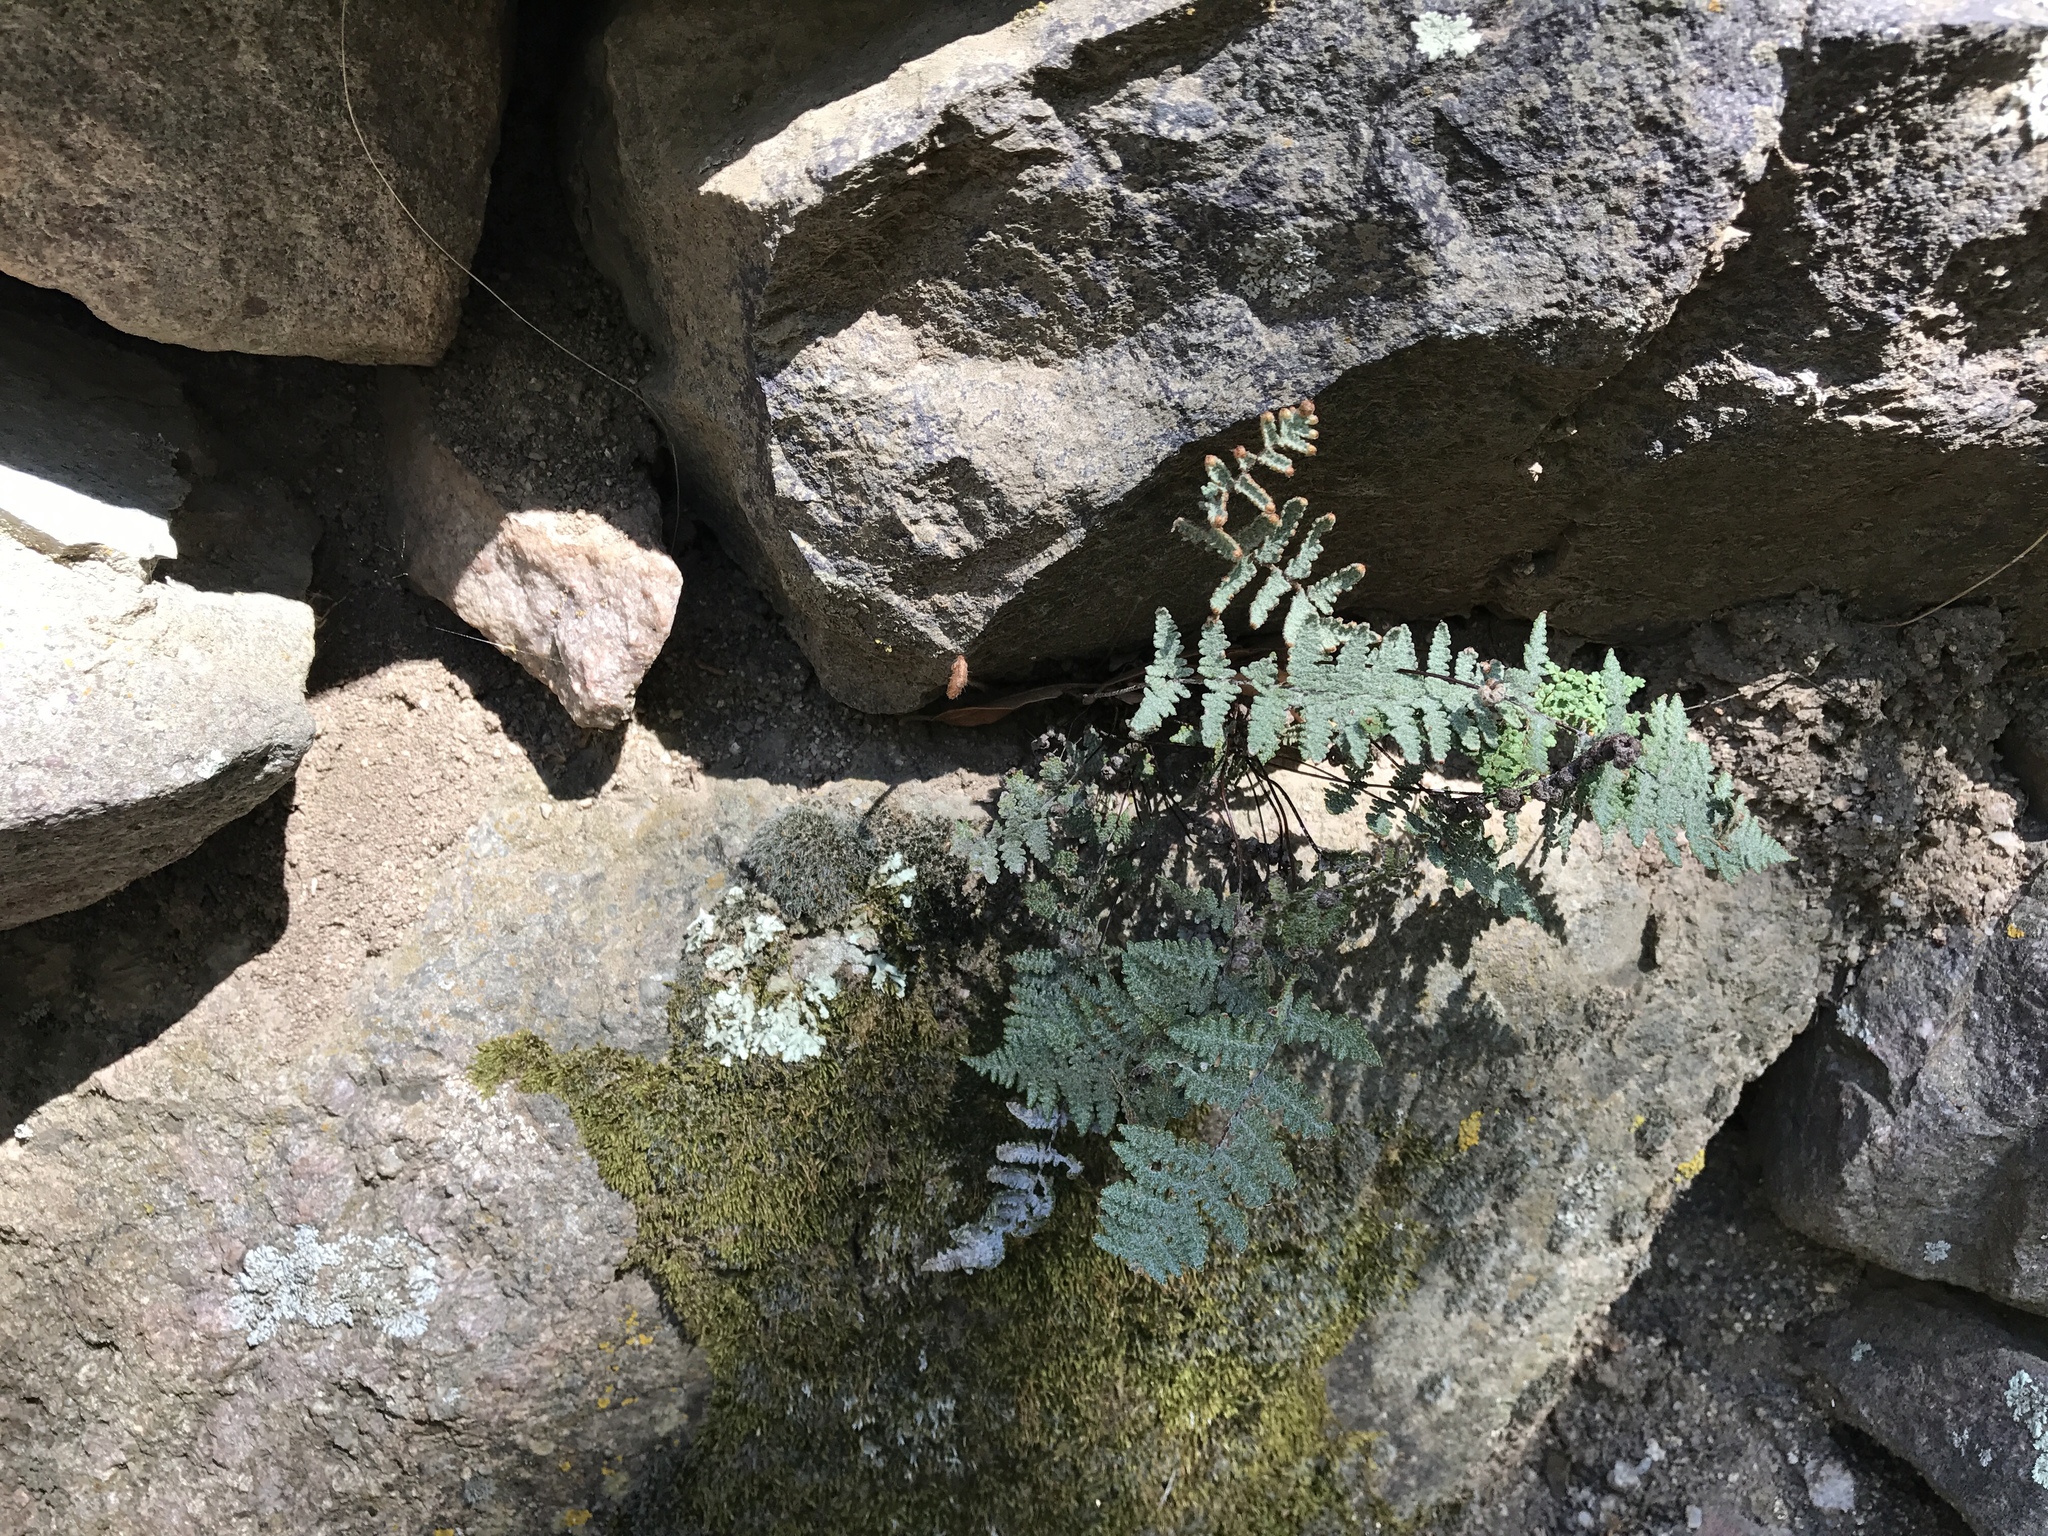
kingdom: Plantae
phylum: Tracheophyta
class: Polypodiopsida
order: Polypodiales
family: Pteridaceae
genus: Myriopteris
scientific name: Myriopteris lindheimeri
